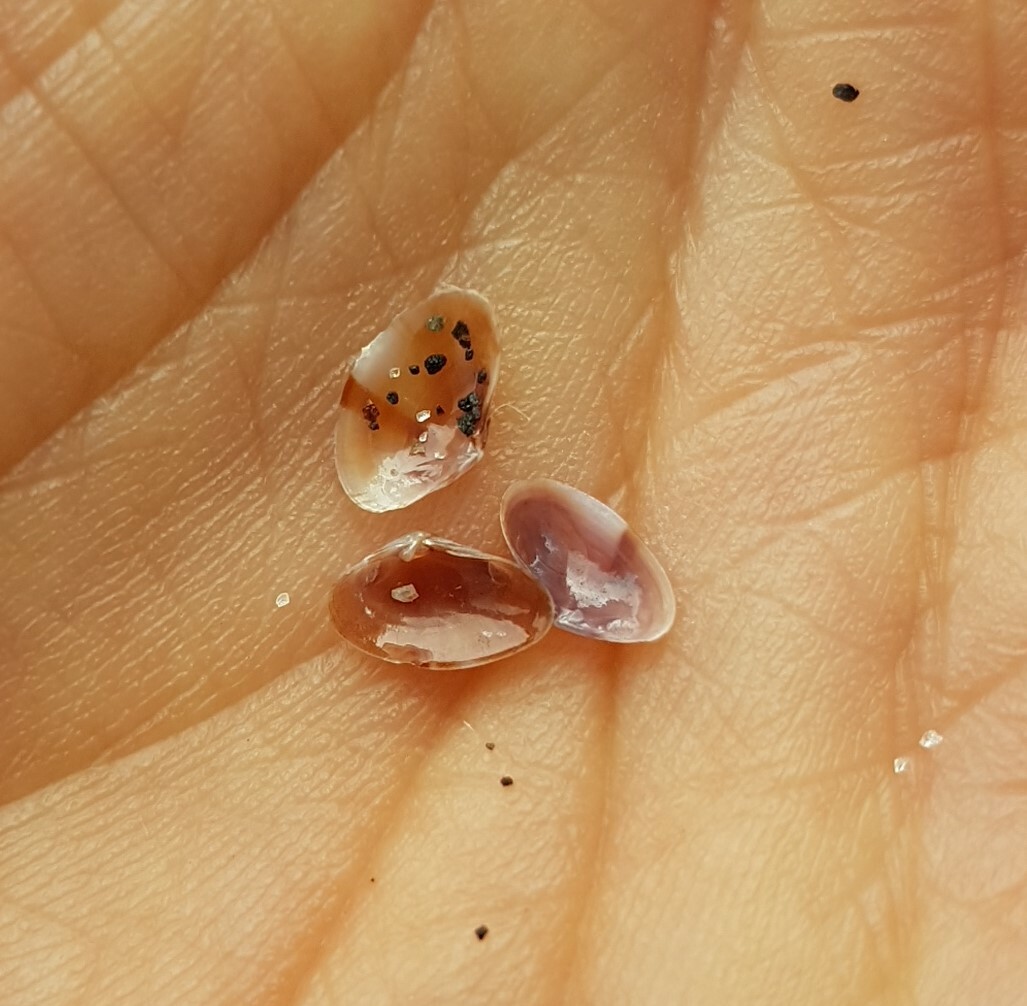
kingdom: Chromista
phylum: Ciliophora
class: Cyrtophoria
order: Dysteriida
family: Dysteriidae
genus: Ervilia
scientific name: Ervilia castanea
